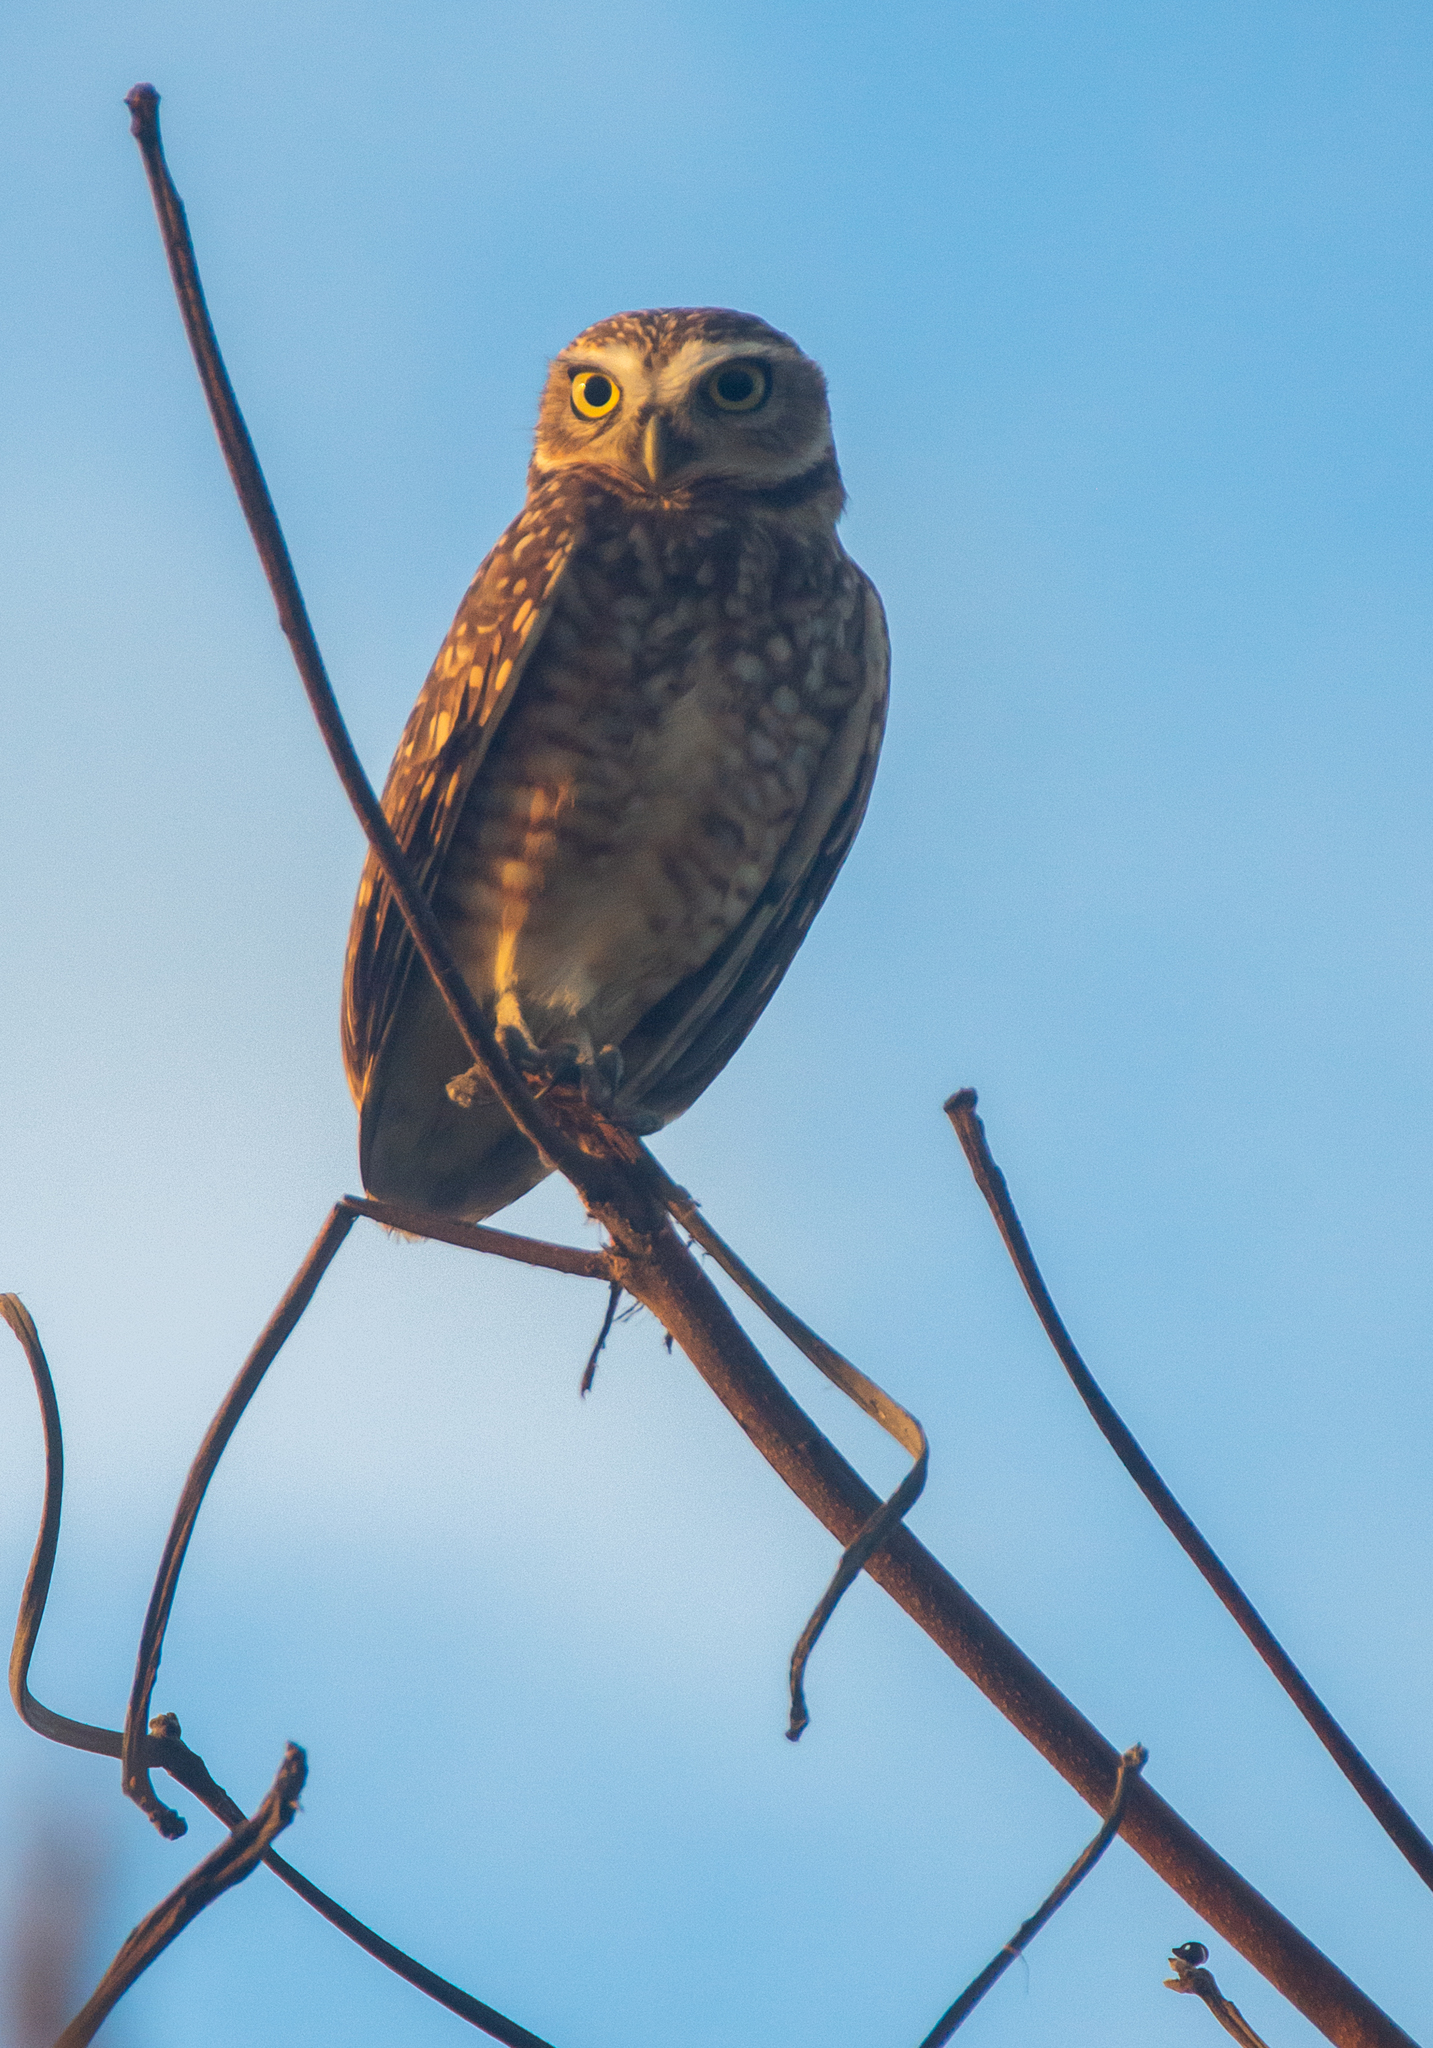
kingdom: Animalia
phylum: Chordata
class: Aves
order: Strigiformes
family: Strigidae
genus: Athene
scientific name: Athene cunicularia
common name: Burrowing owl
